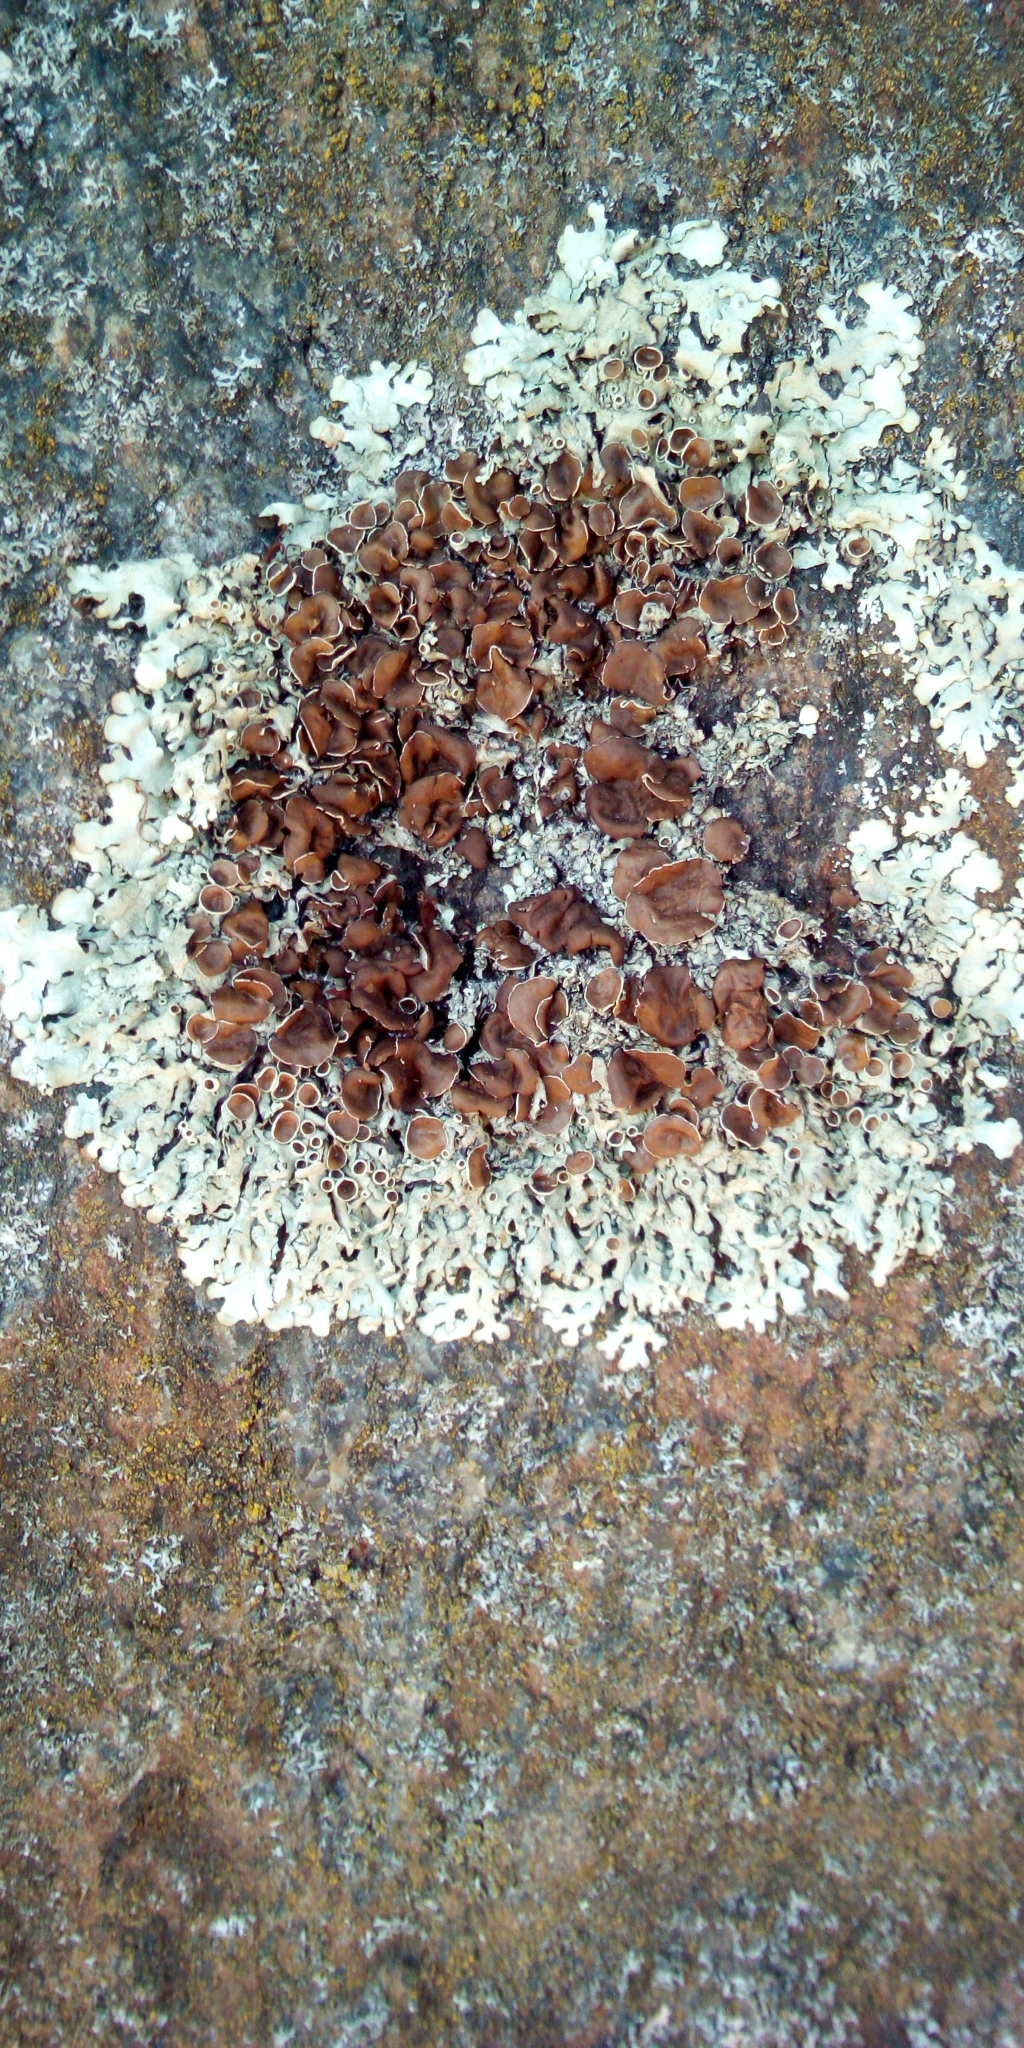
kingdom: Fungi
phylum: Ascomycota
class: Lecanoromycetes
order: Lecanorales
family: Parmeliaceae
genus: Xanthoparmelia
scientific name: Xanthoparmelia stenophylla
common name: Shingled rock shield
